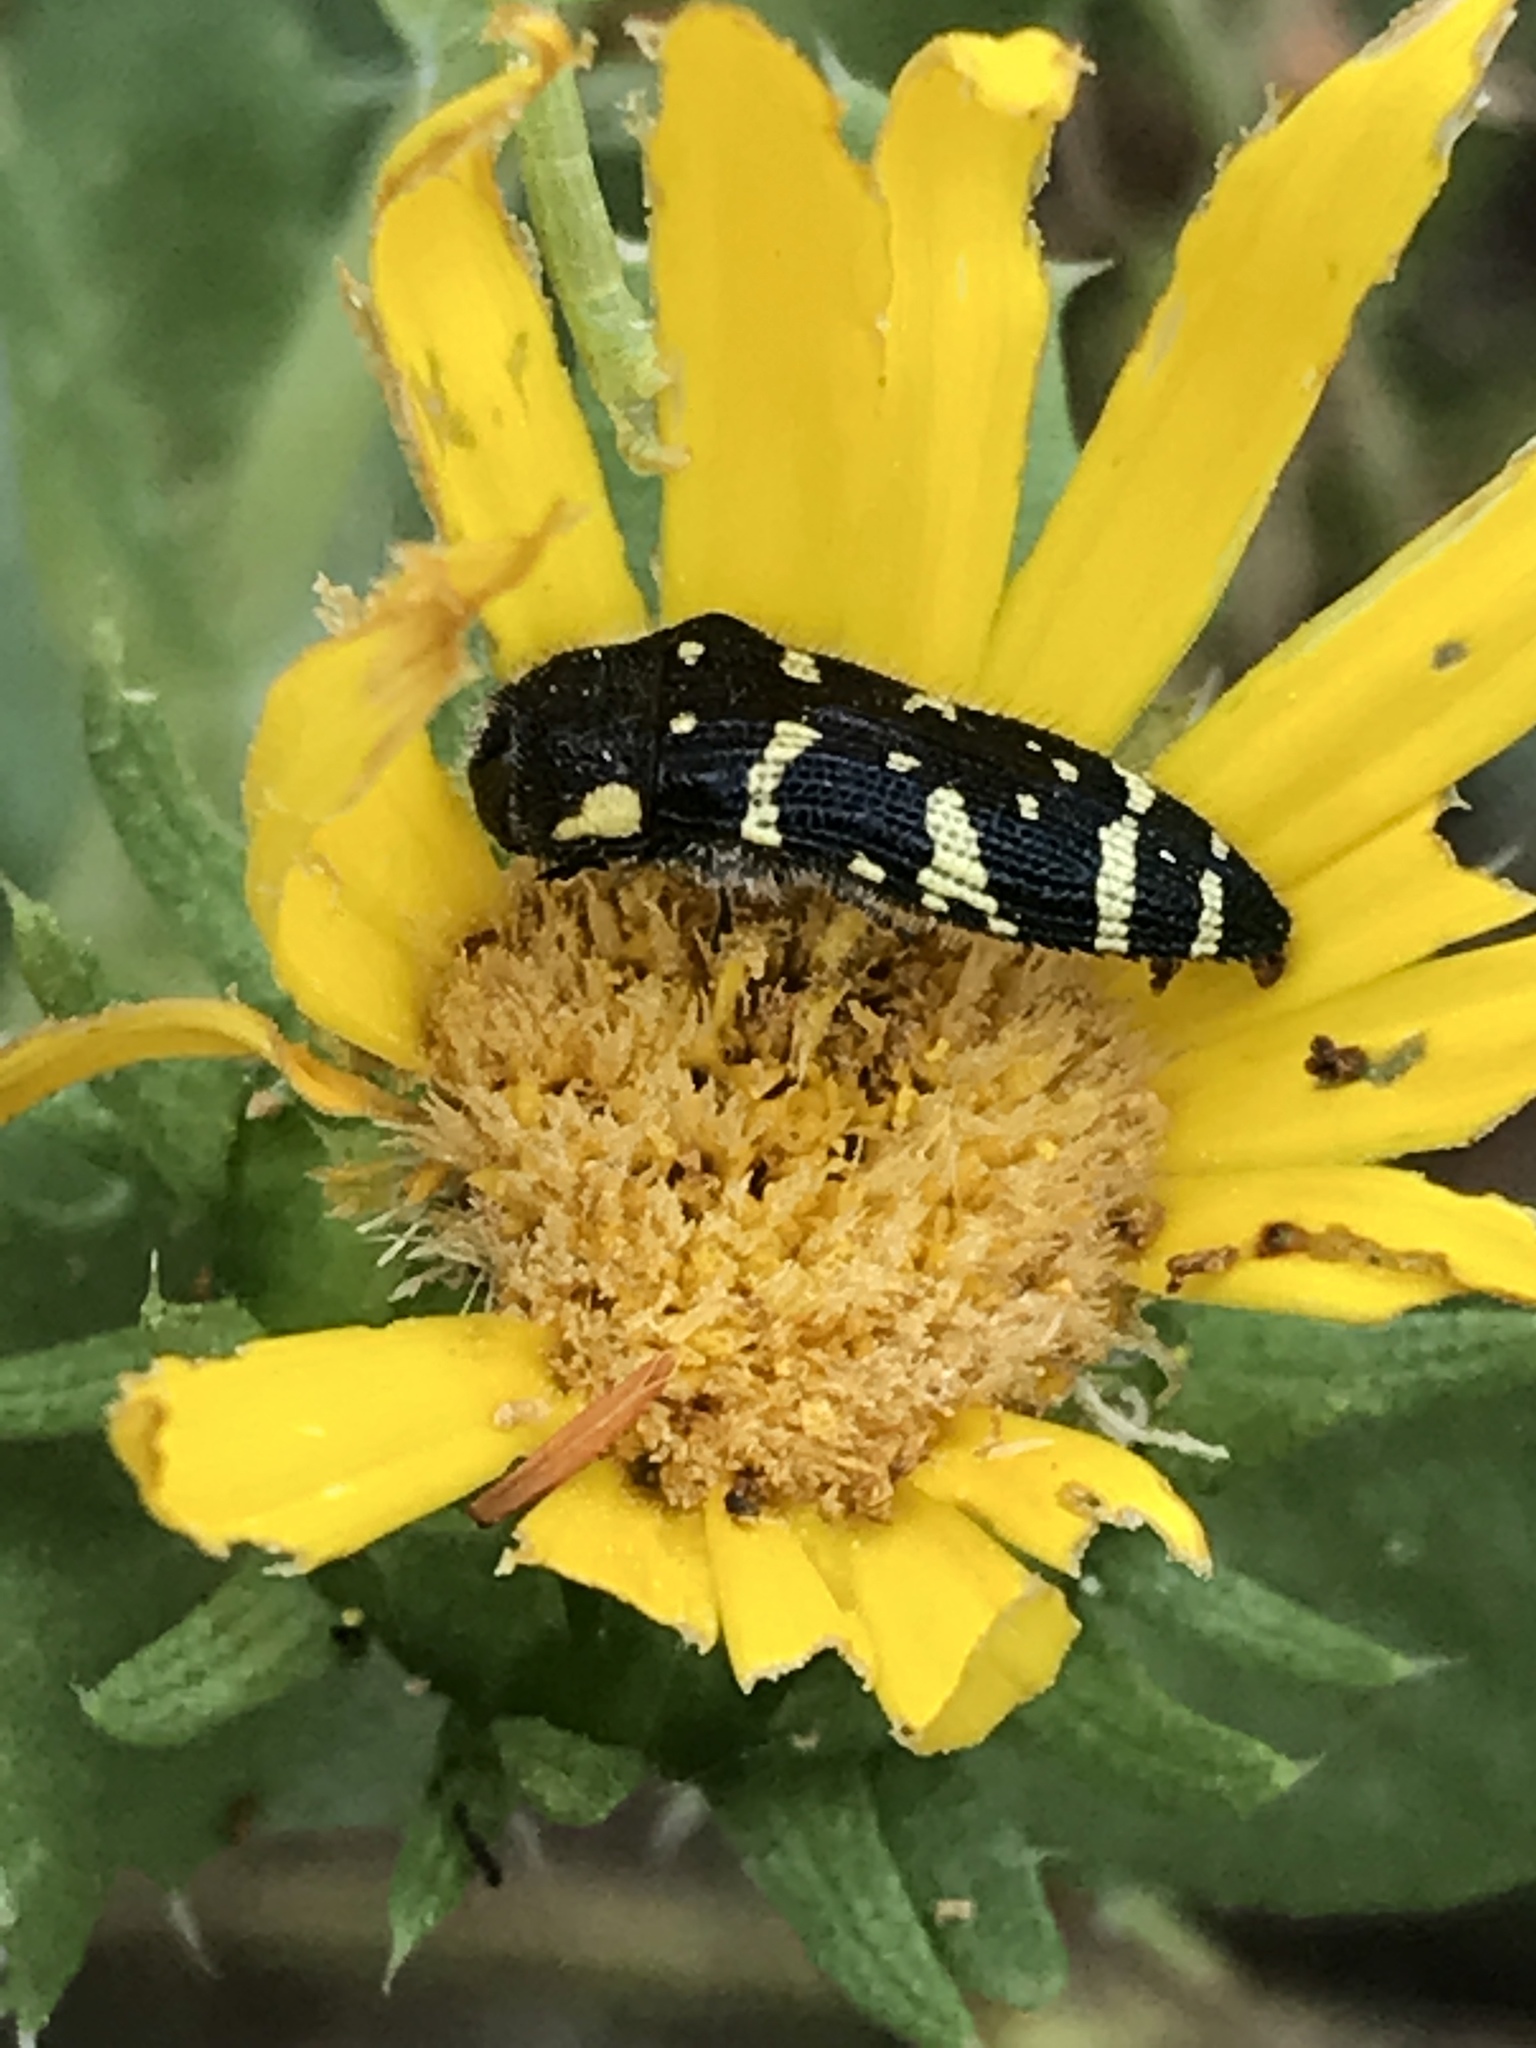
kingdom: Animalia
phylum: Arthropoda
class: Insecta
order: Coleoptera
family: Buprestidae
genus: Acmaeodera
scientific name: Acmaeodera macra
